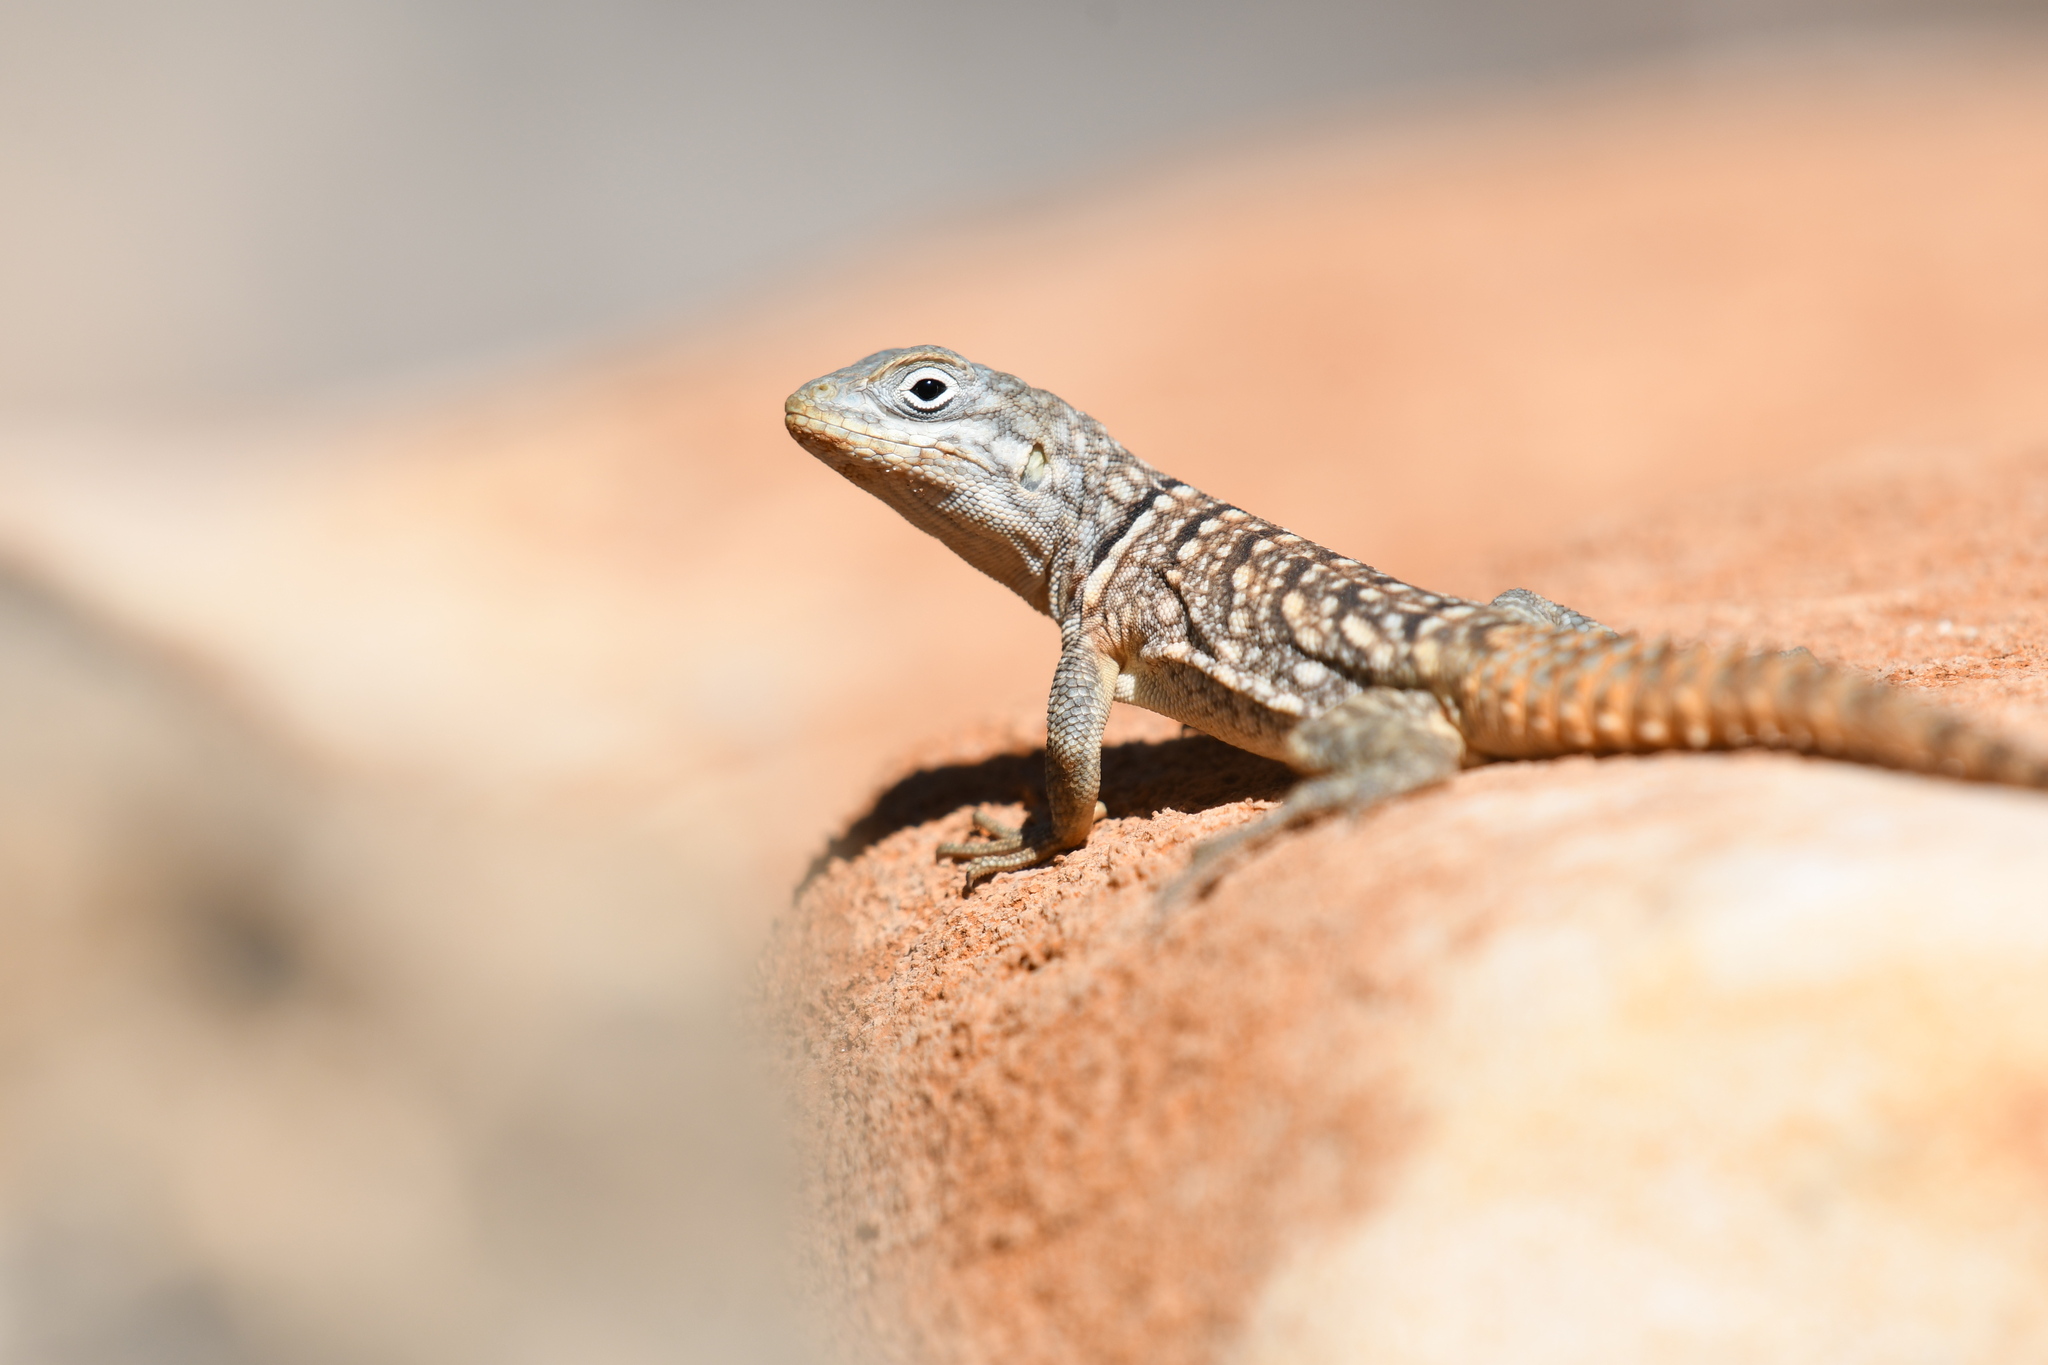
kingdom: Animalia
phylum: Chordata
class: Squamata
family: Opluridae
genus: Oplurus
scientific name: Oplurus cyclurus
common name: Merrem's madagascar swift
